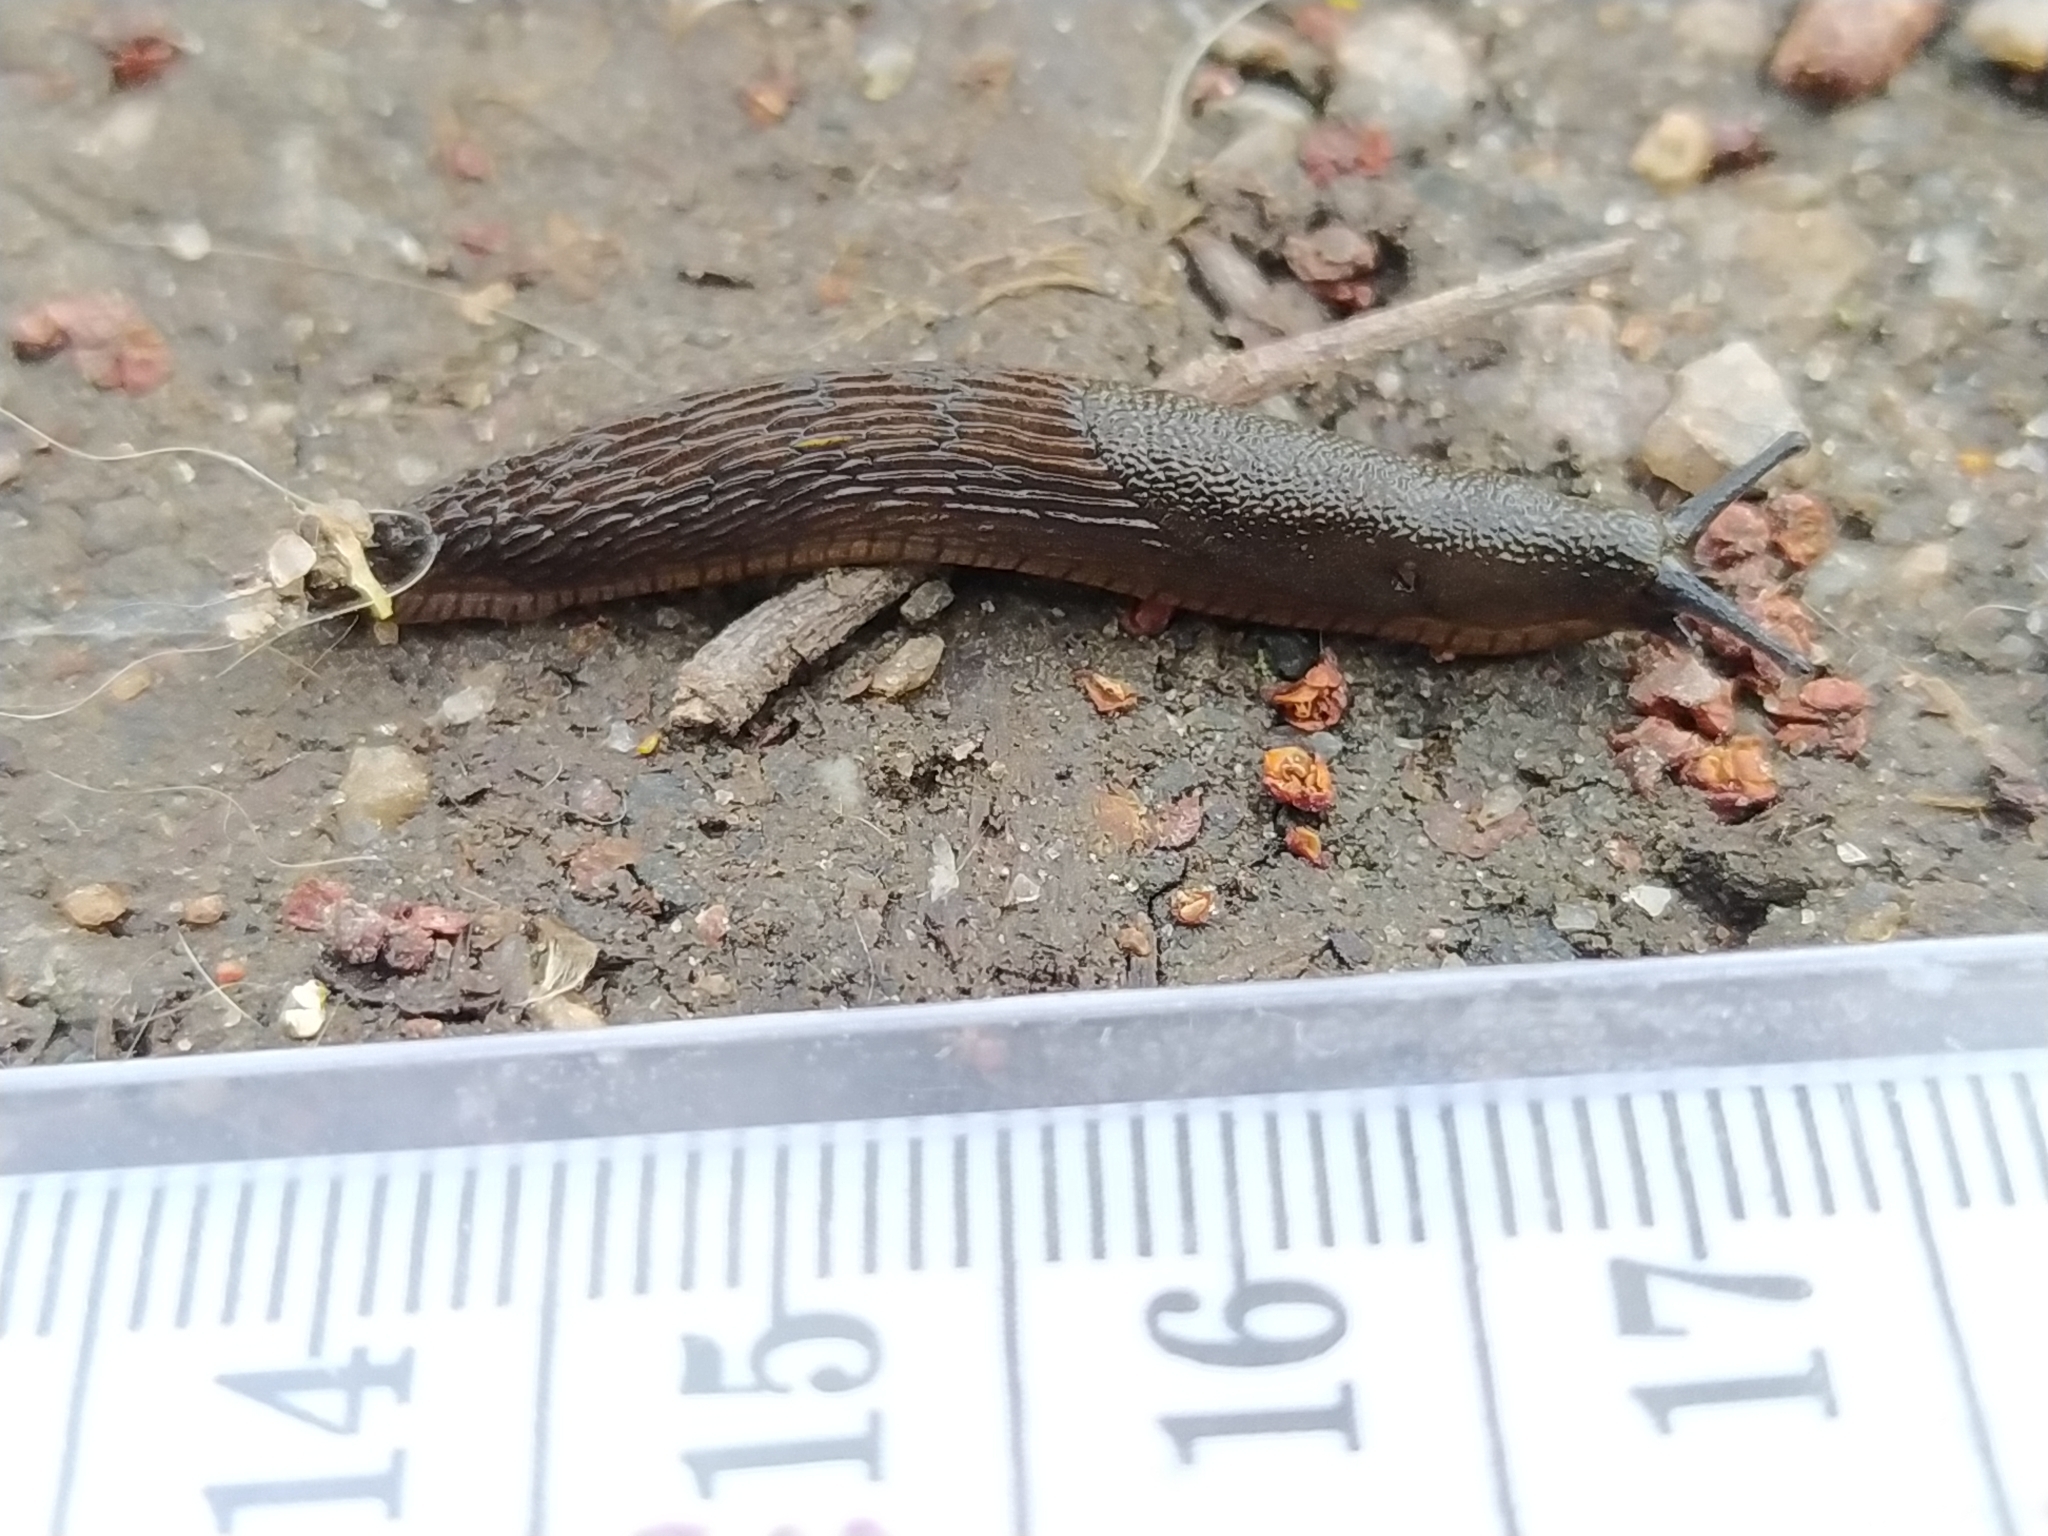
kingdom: Animalia
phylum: Mollusca
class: Gastropoda
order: Stylommatophora
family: Arionidae
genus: Arion
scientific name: Arion vulgaris
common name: Lusitanian slug
